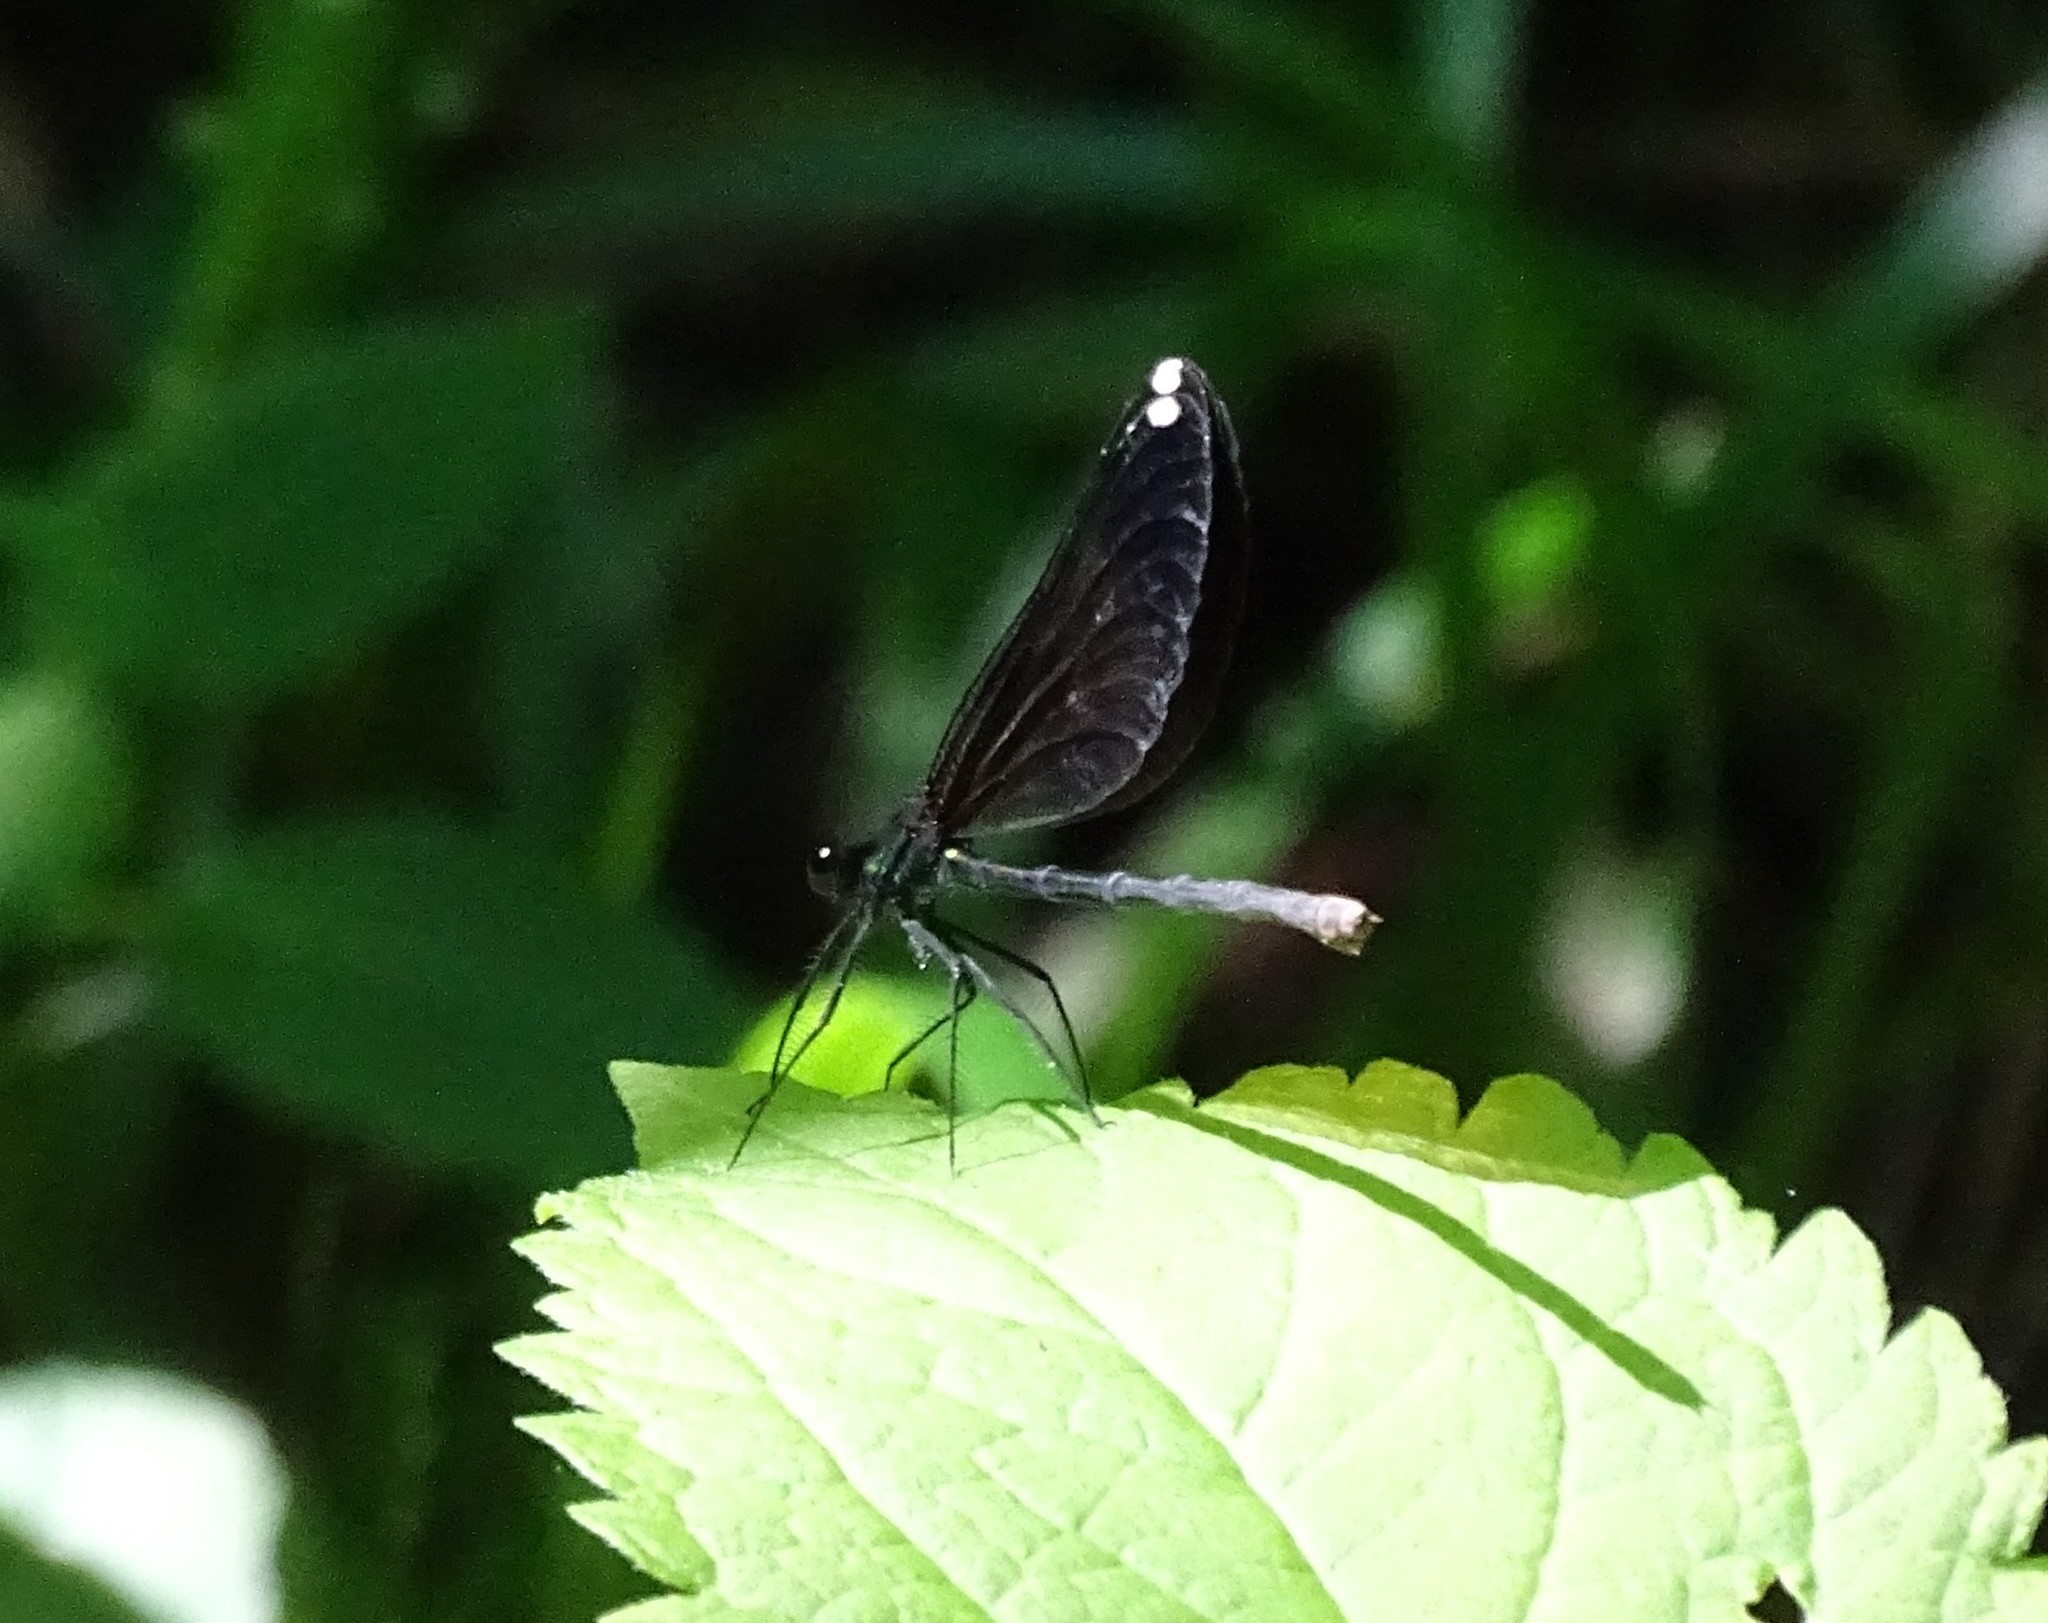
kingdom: Animalia
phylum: Arthropoda
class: Insecta
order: Odonata
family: Calopterygidae
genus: Calopteryx
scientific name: Calopteryx maculata
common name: Ebony jewelwing
